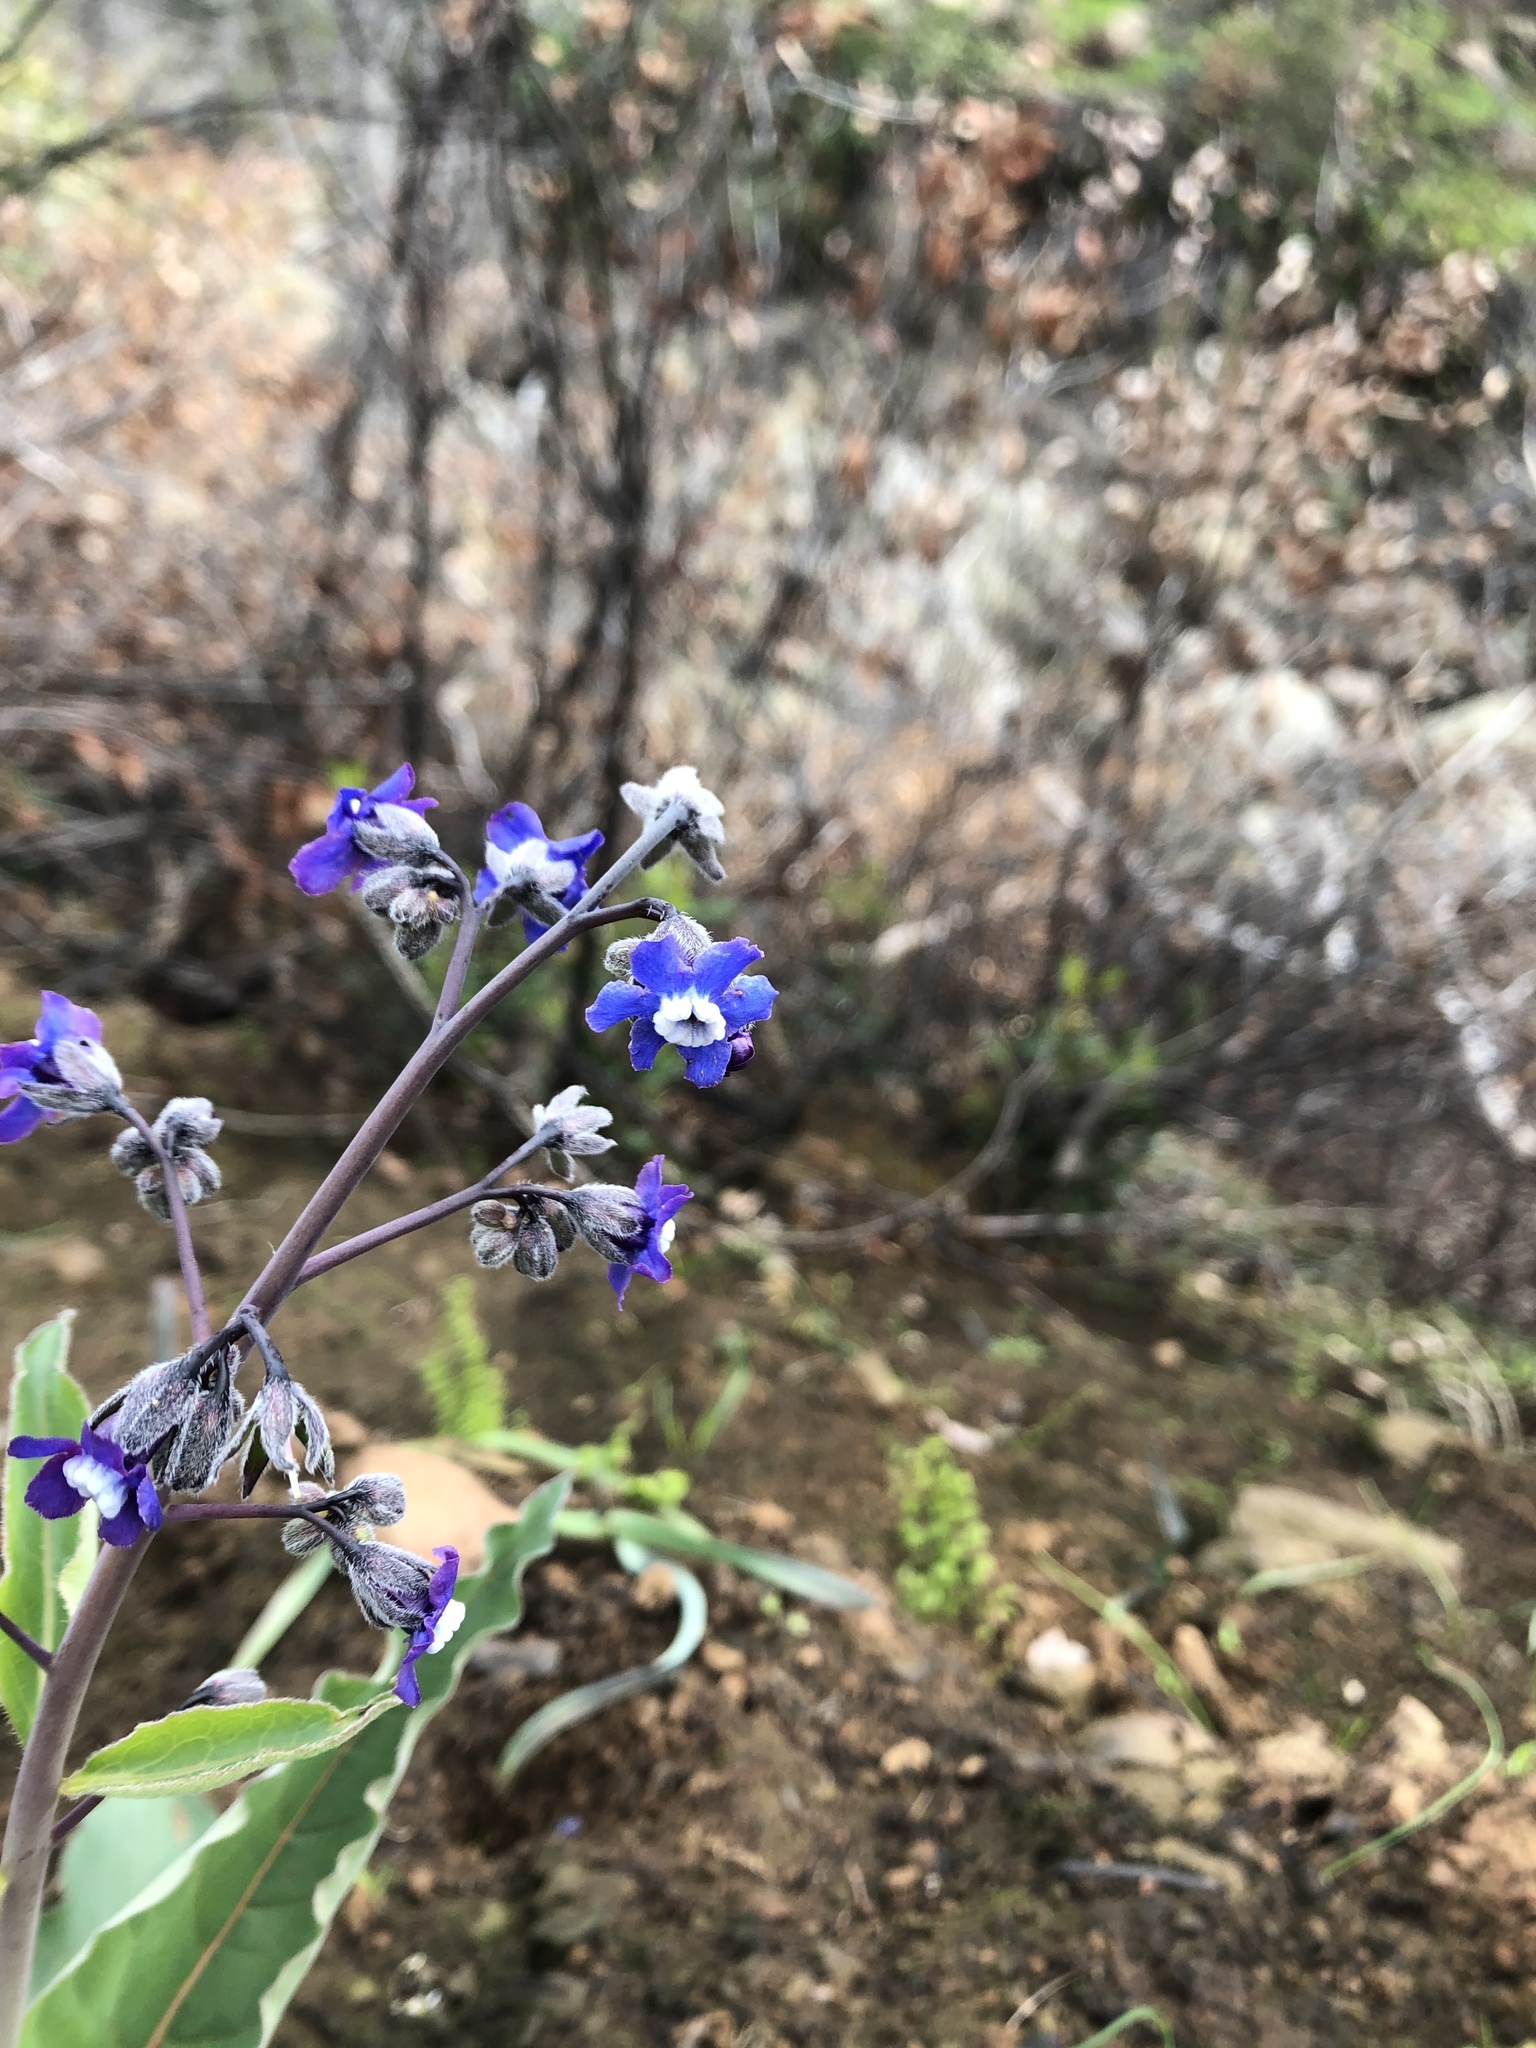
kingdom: Plantae
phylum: Tracheophyta
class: Magnoliopsida
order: Boraginales
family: Boraginaceae
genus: Adelinia
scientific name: Adelinia grande
